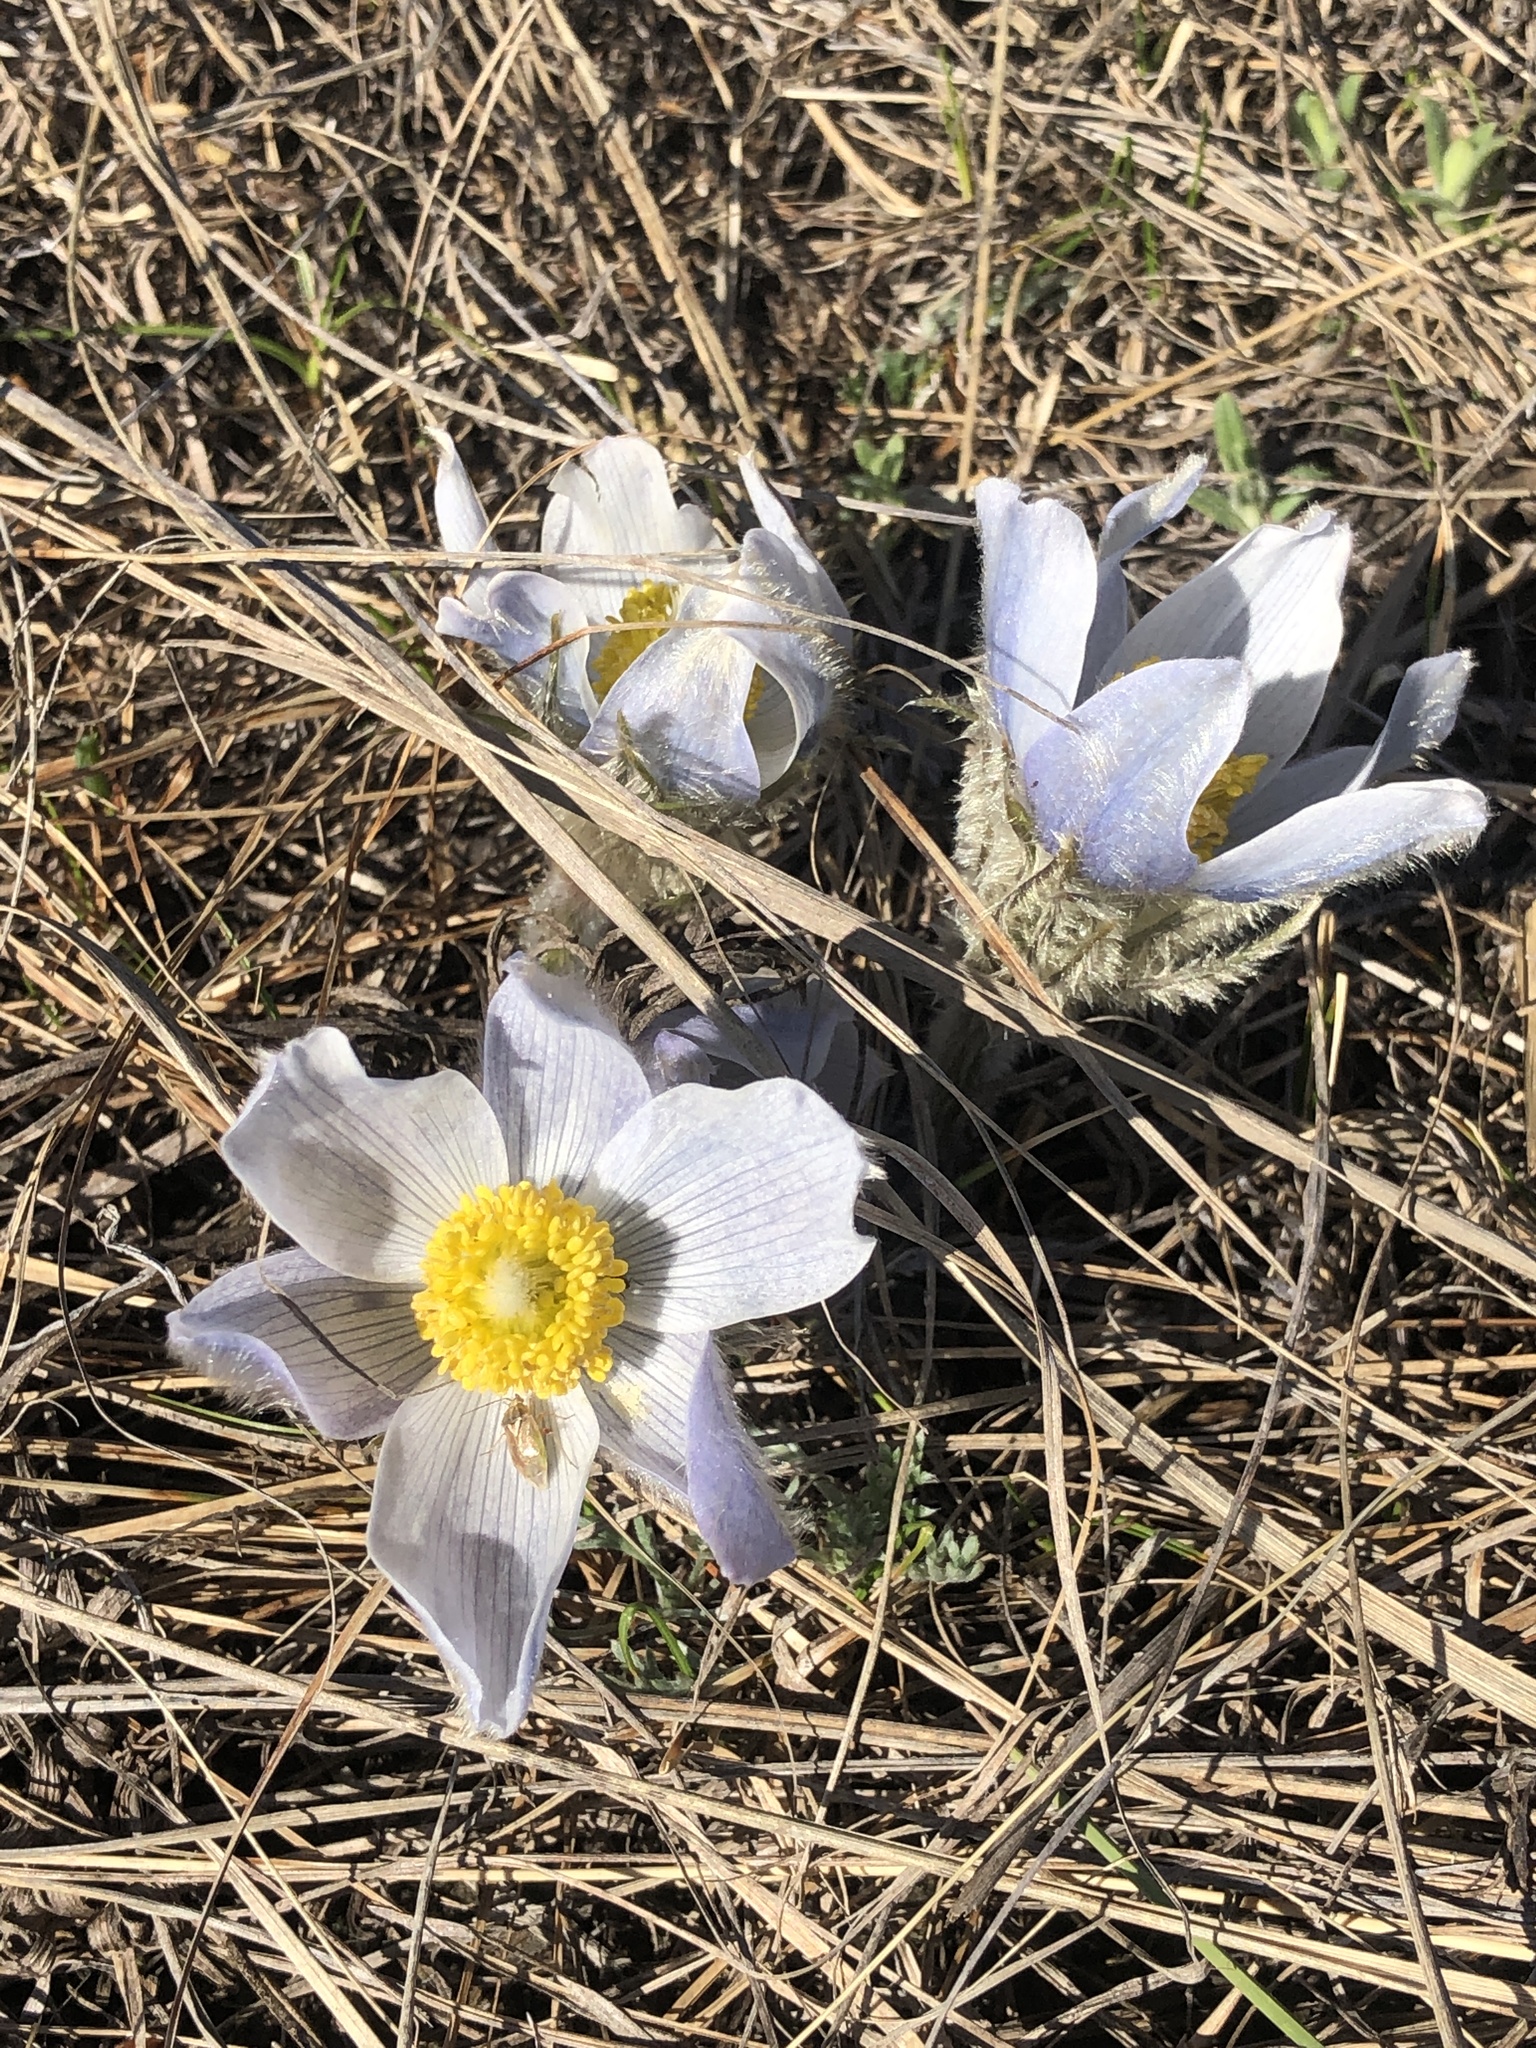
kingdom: Plantae
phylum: Tracheophyta
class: Magnoliopsida
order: Ranunculales
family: Ranunculaceae
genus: Pulsatilla
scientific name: Pulsatilla nuttalliana
